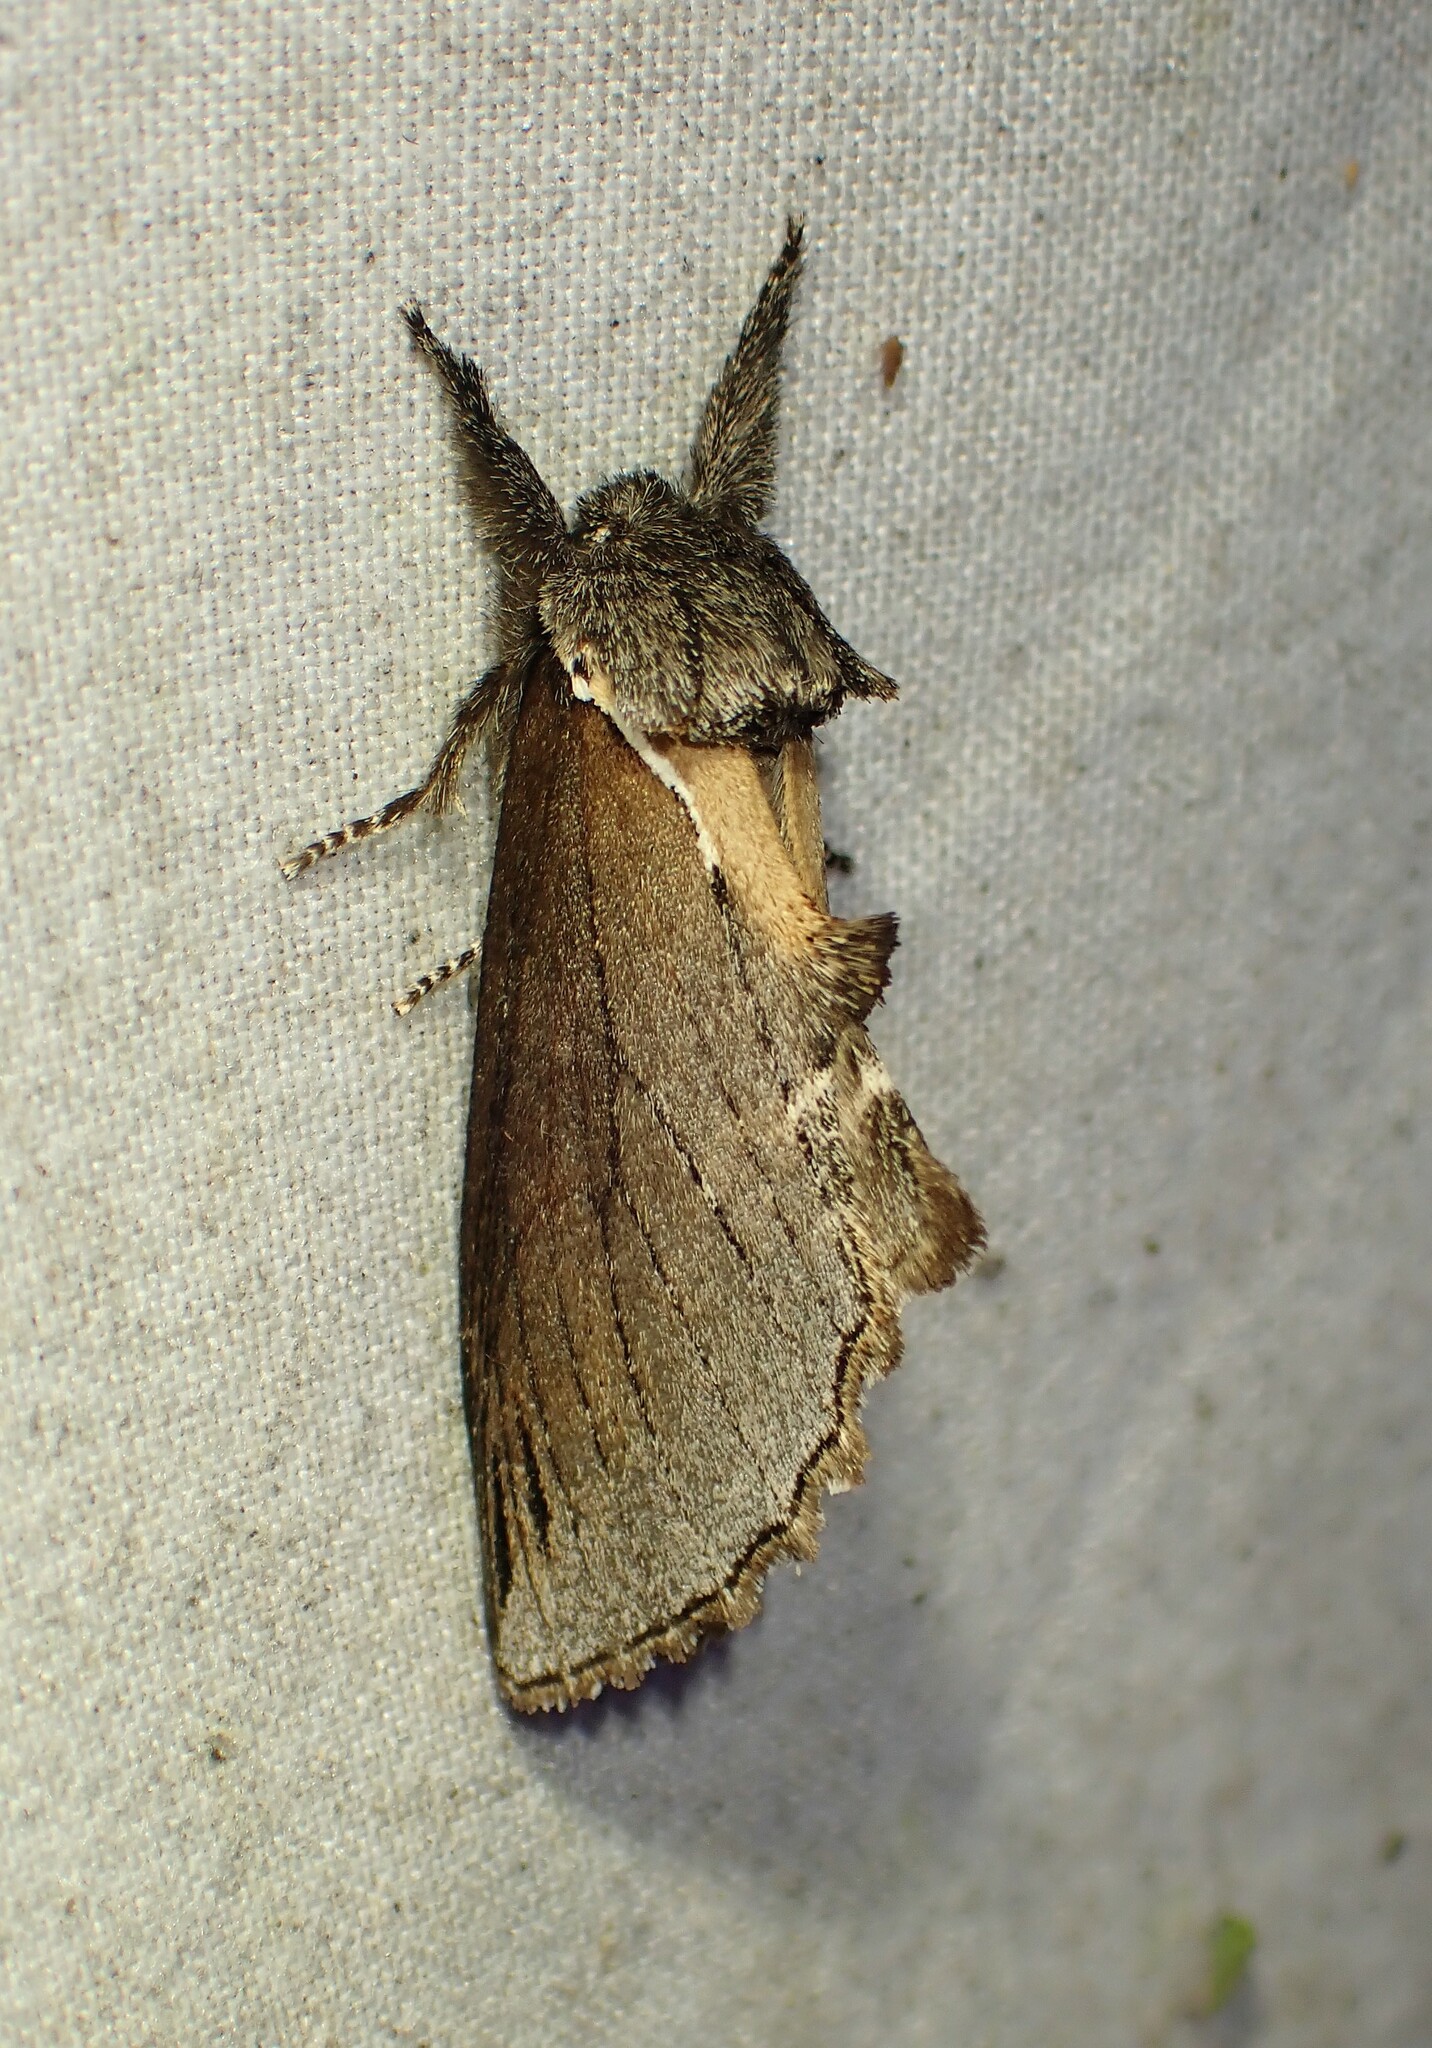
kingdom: Animalia
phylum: Arthropoda
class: Insecta
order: Lepidoptera
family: Notodontidae
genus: Pheosidea
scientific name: Pheosidea elegans
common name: Elegant prominent
